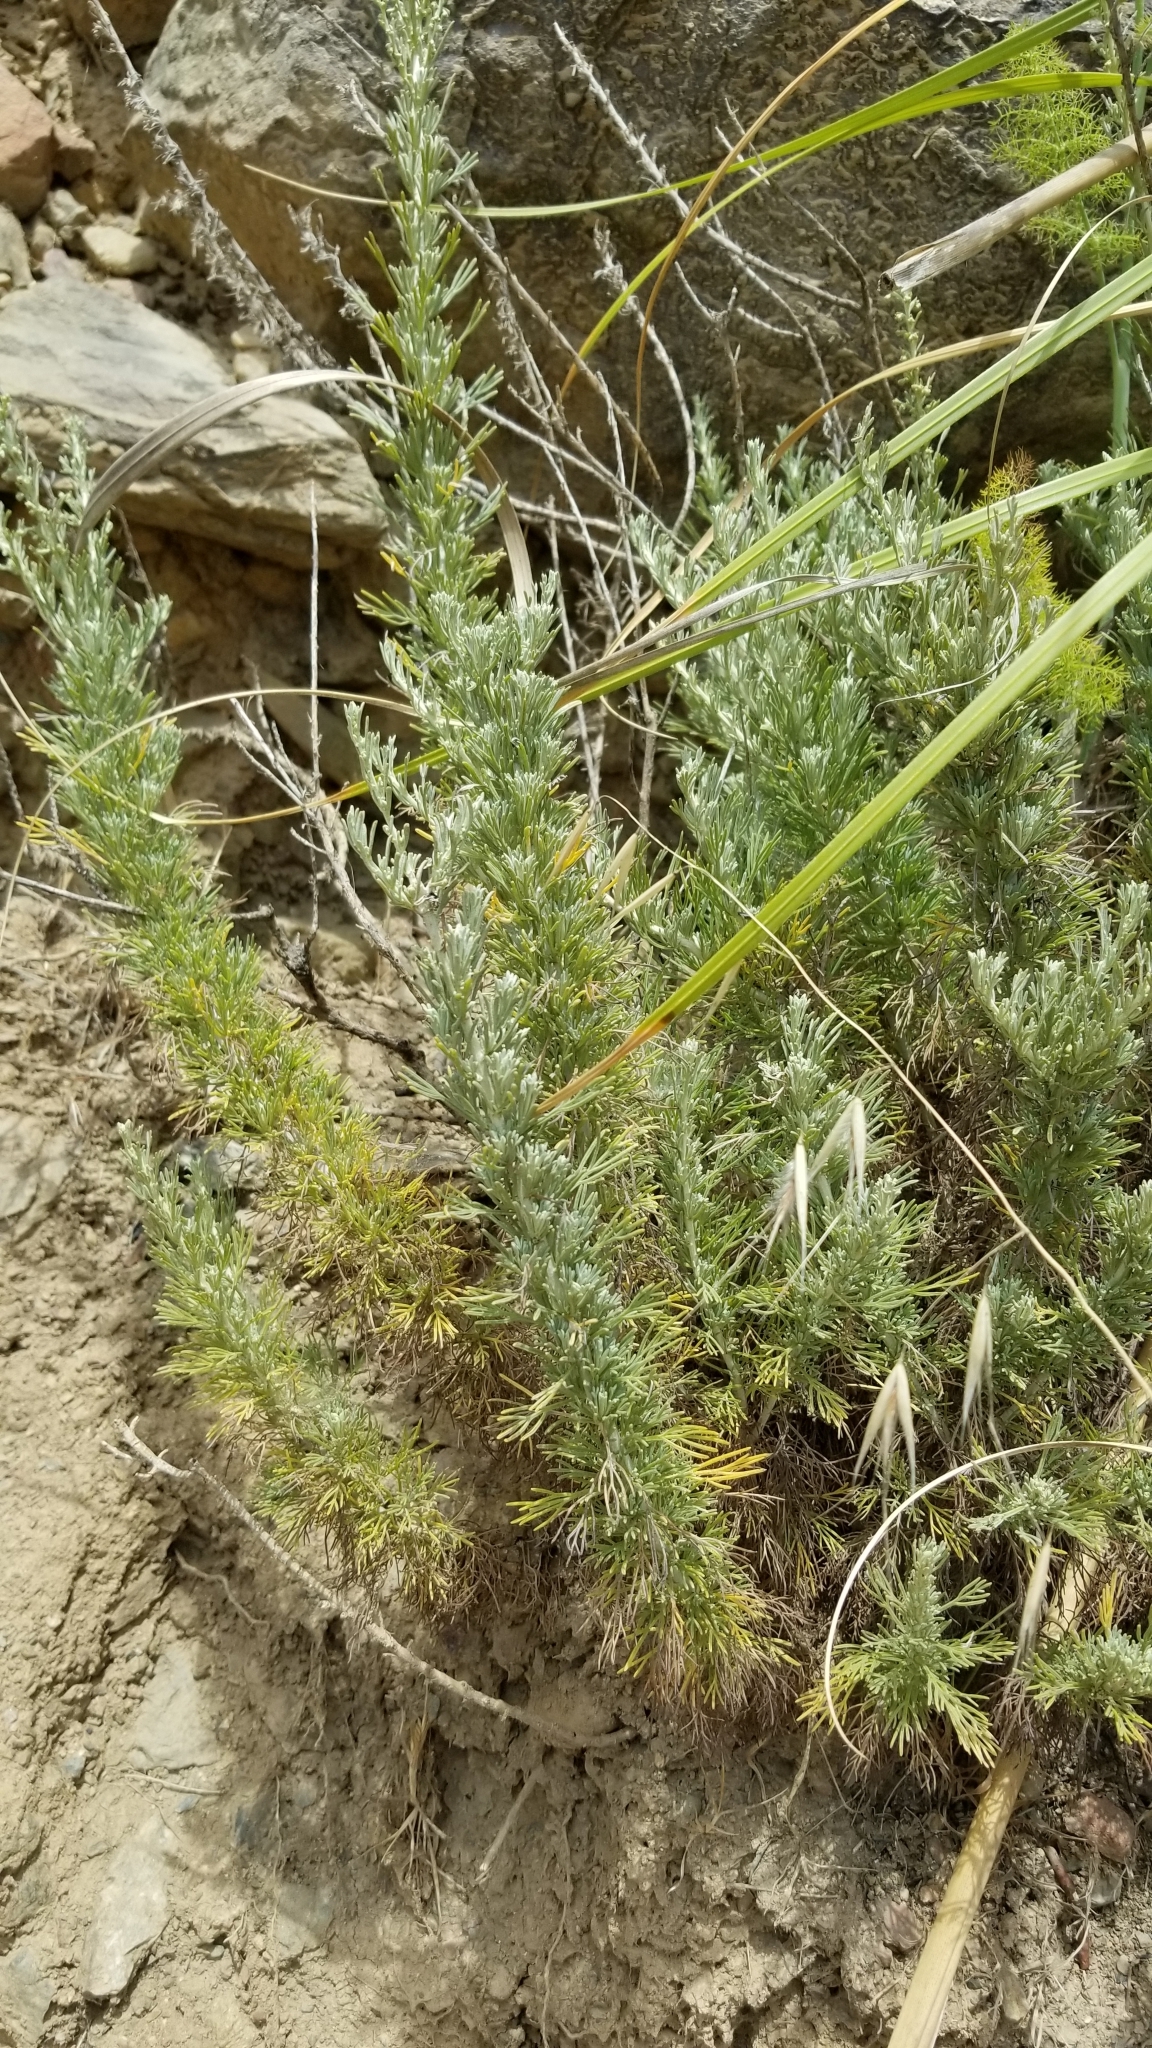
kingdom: Plantae
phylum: Tracheophyta
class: Magnoliopsida
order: Asterales
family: Asteraceae
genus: Artemisia
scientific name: Artemisia californica
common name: California sagebrush
